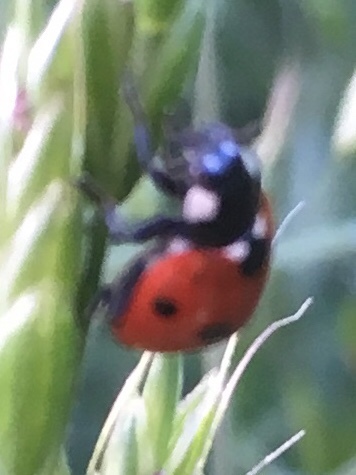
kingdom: Animalia
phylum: Arthropoda
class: Insecta
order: Coleoptera
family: Coccinellidae
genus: Coccinella
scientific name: Coccinella septempunctata
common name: Sevenspotted lady beetle
